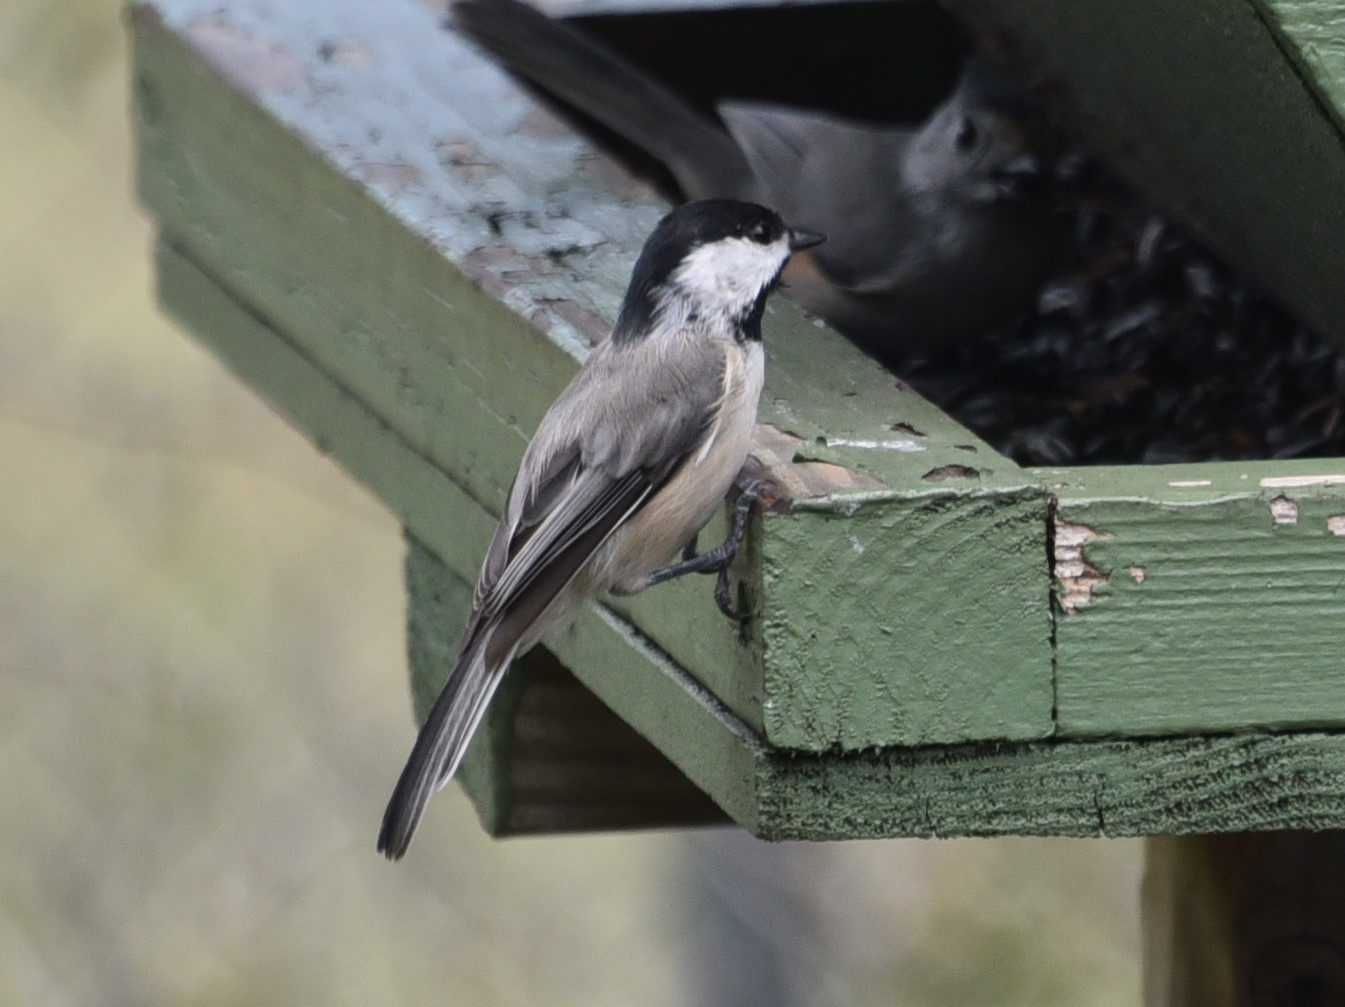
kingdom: Animalia
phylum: Chordata
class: Aves
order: Passeriformes
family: Paridae
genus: Poecile
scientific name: Poecile carolinensis
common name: Carolina chickadee
